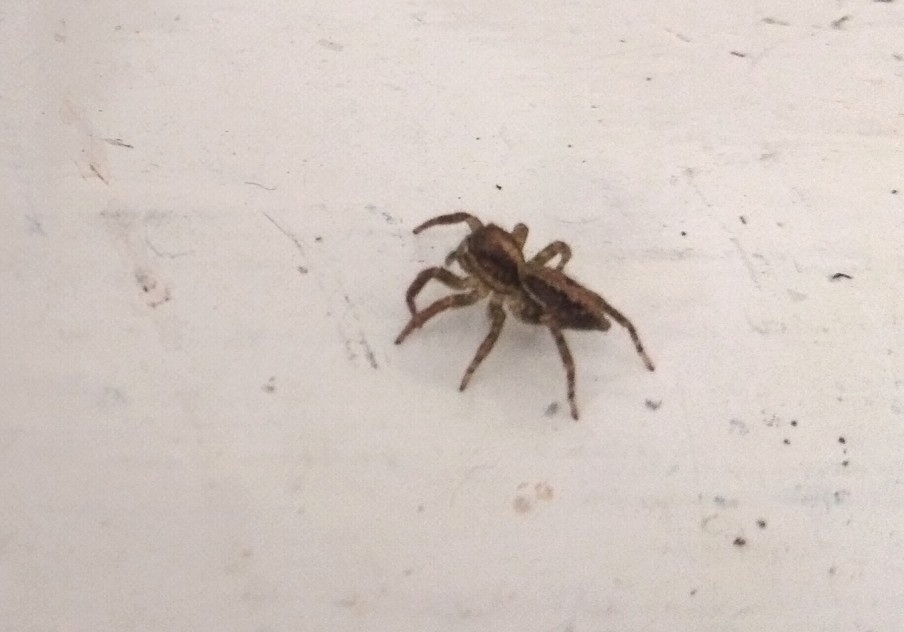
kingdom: Animalia
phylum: Arthropoda
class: Arachnida
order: Araneae
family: Salticidae
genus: Saitis
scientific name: Saitis variegatus
